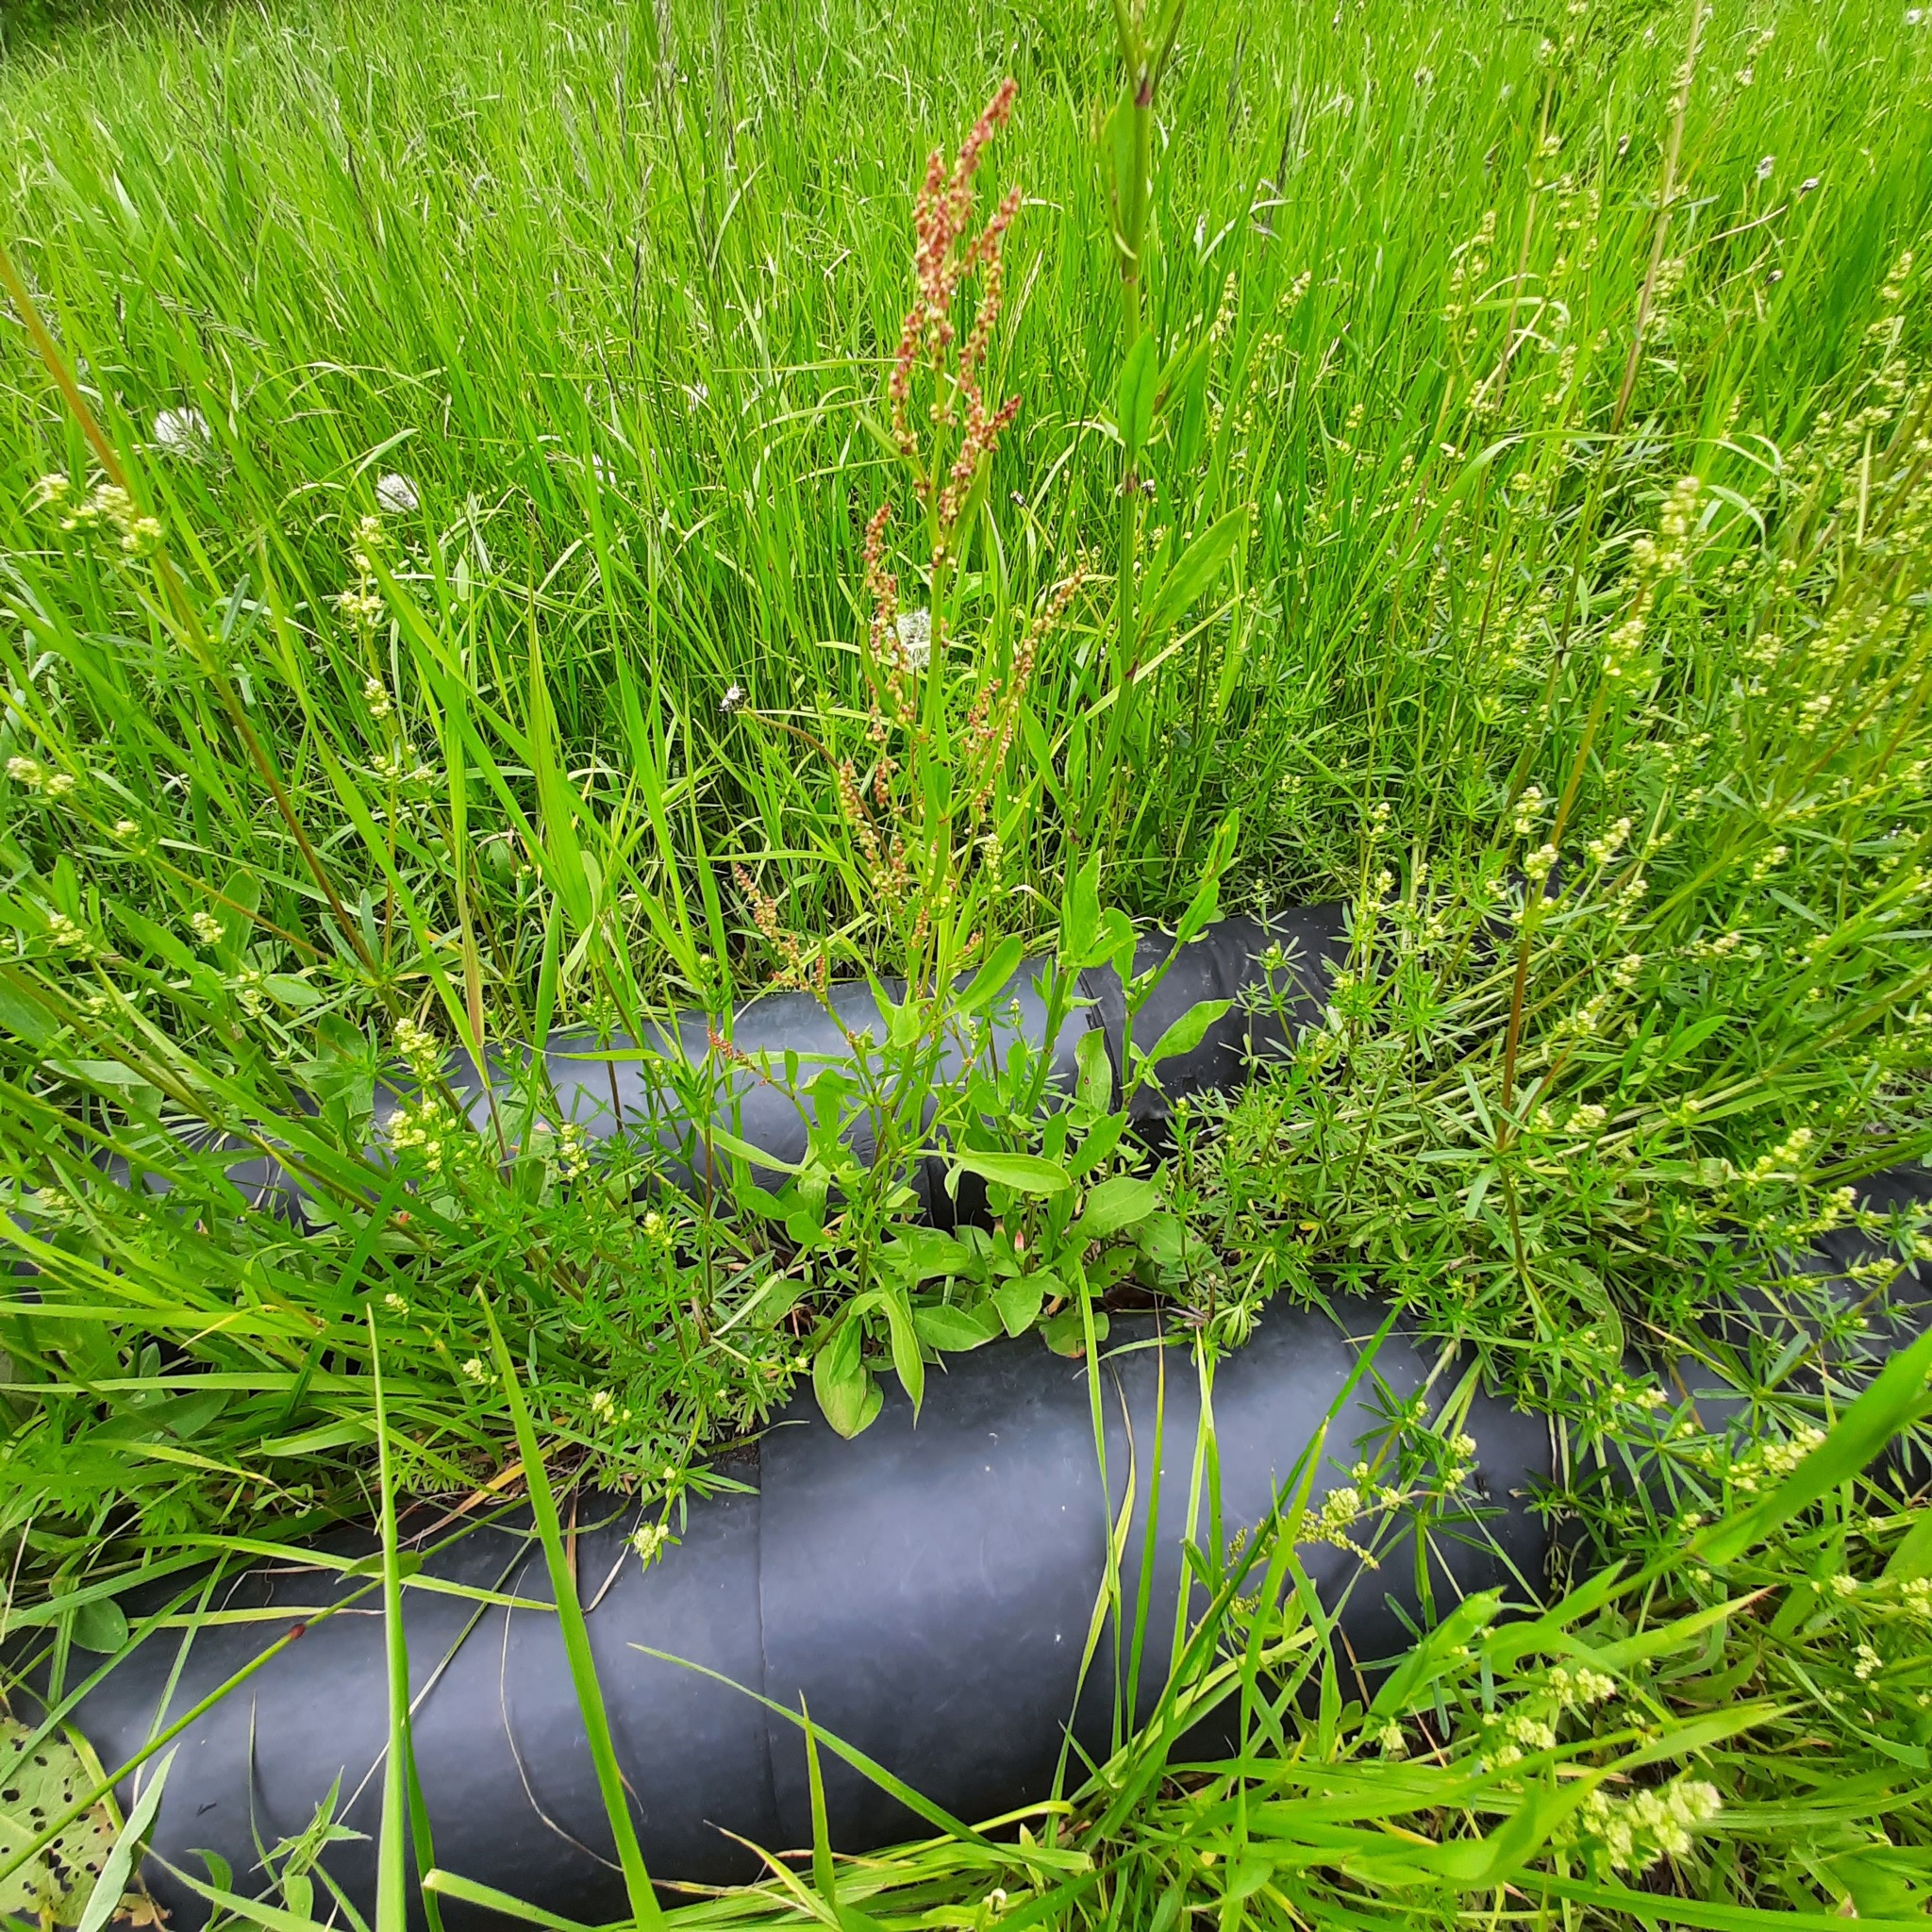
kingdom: Plantae
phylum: Tracheophyta
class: Magnoliopsida
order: Caryophyllales
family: Polygonaceae
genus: Rumex
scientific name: Rumex acetosella
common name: Common sheep sorrel
